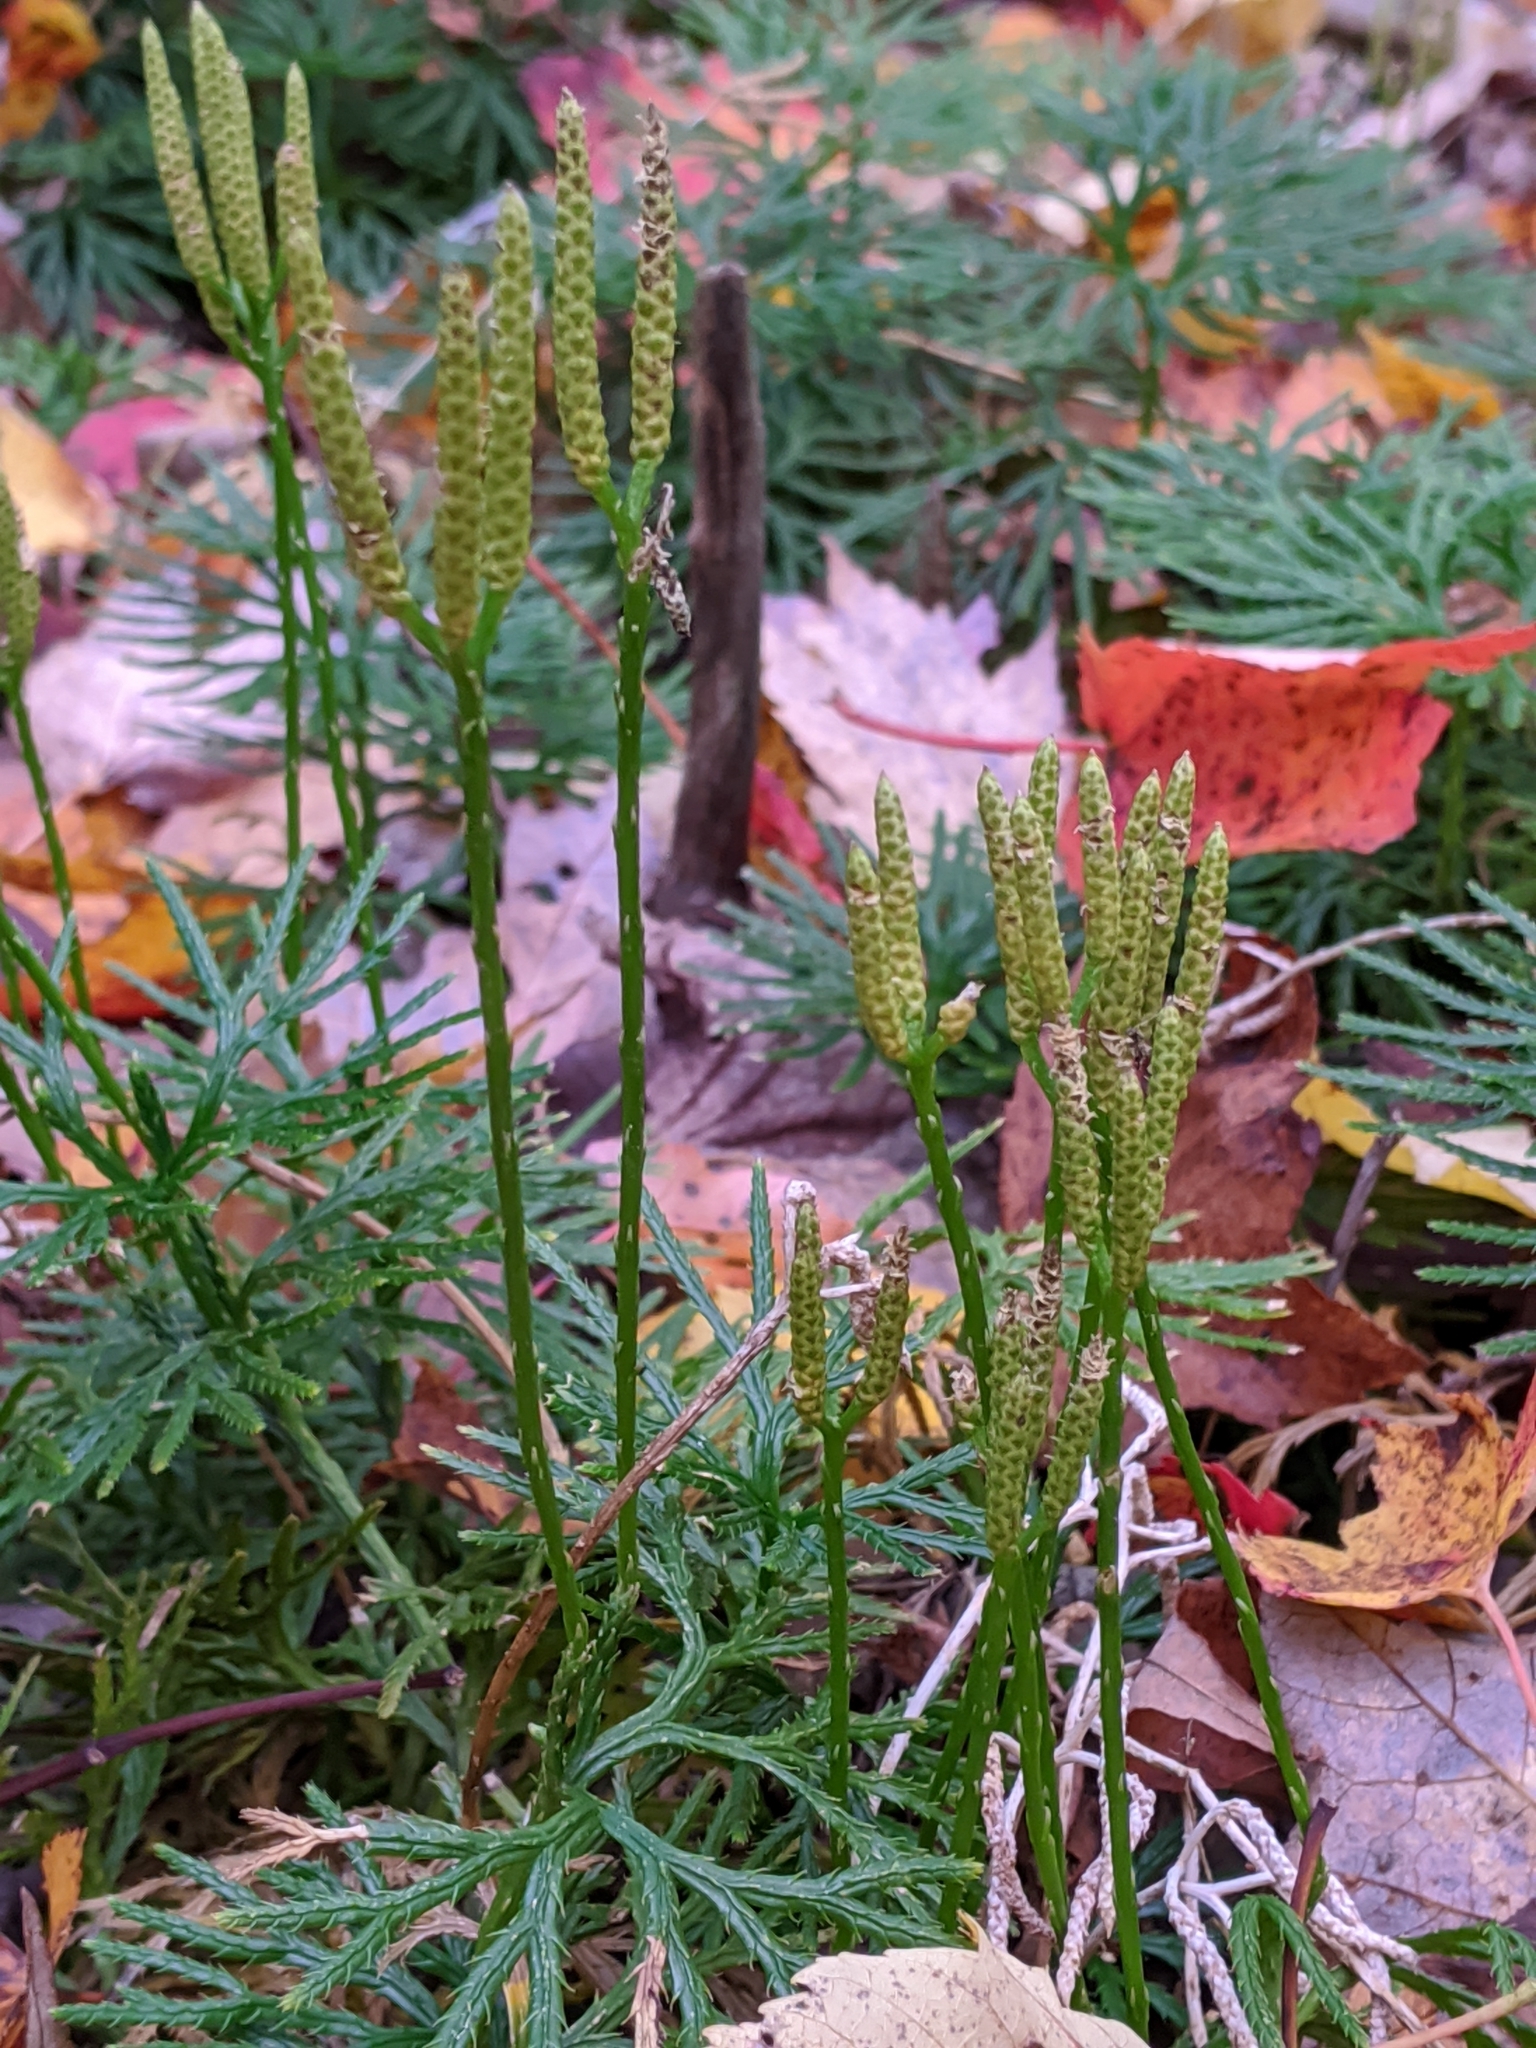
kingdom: Plantae
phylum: Tracheophyta
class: Lycopodiopsida
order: Lycopodiales
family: Lycopodiaceae
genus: Diphasiastrum
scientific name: Diphasiastrum digitatum
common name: Southern running-pine
